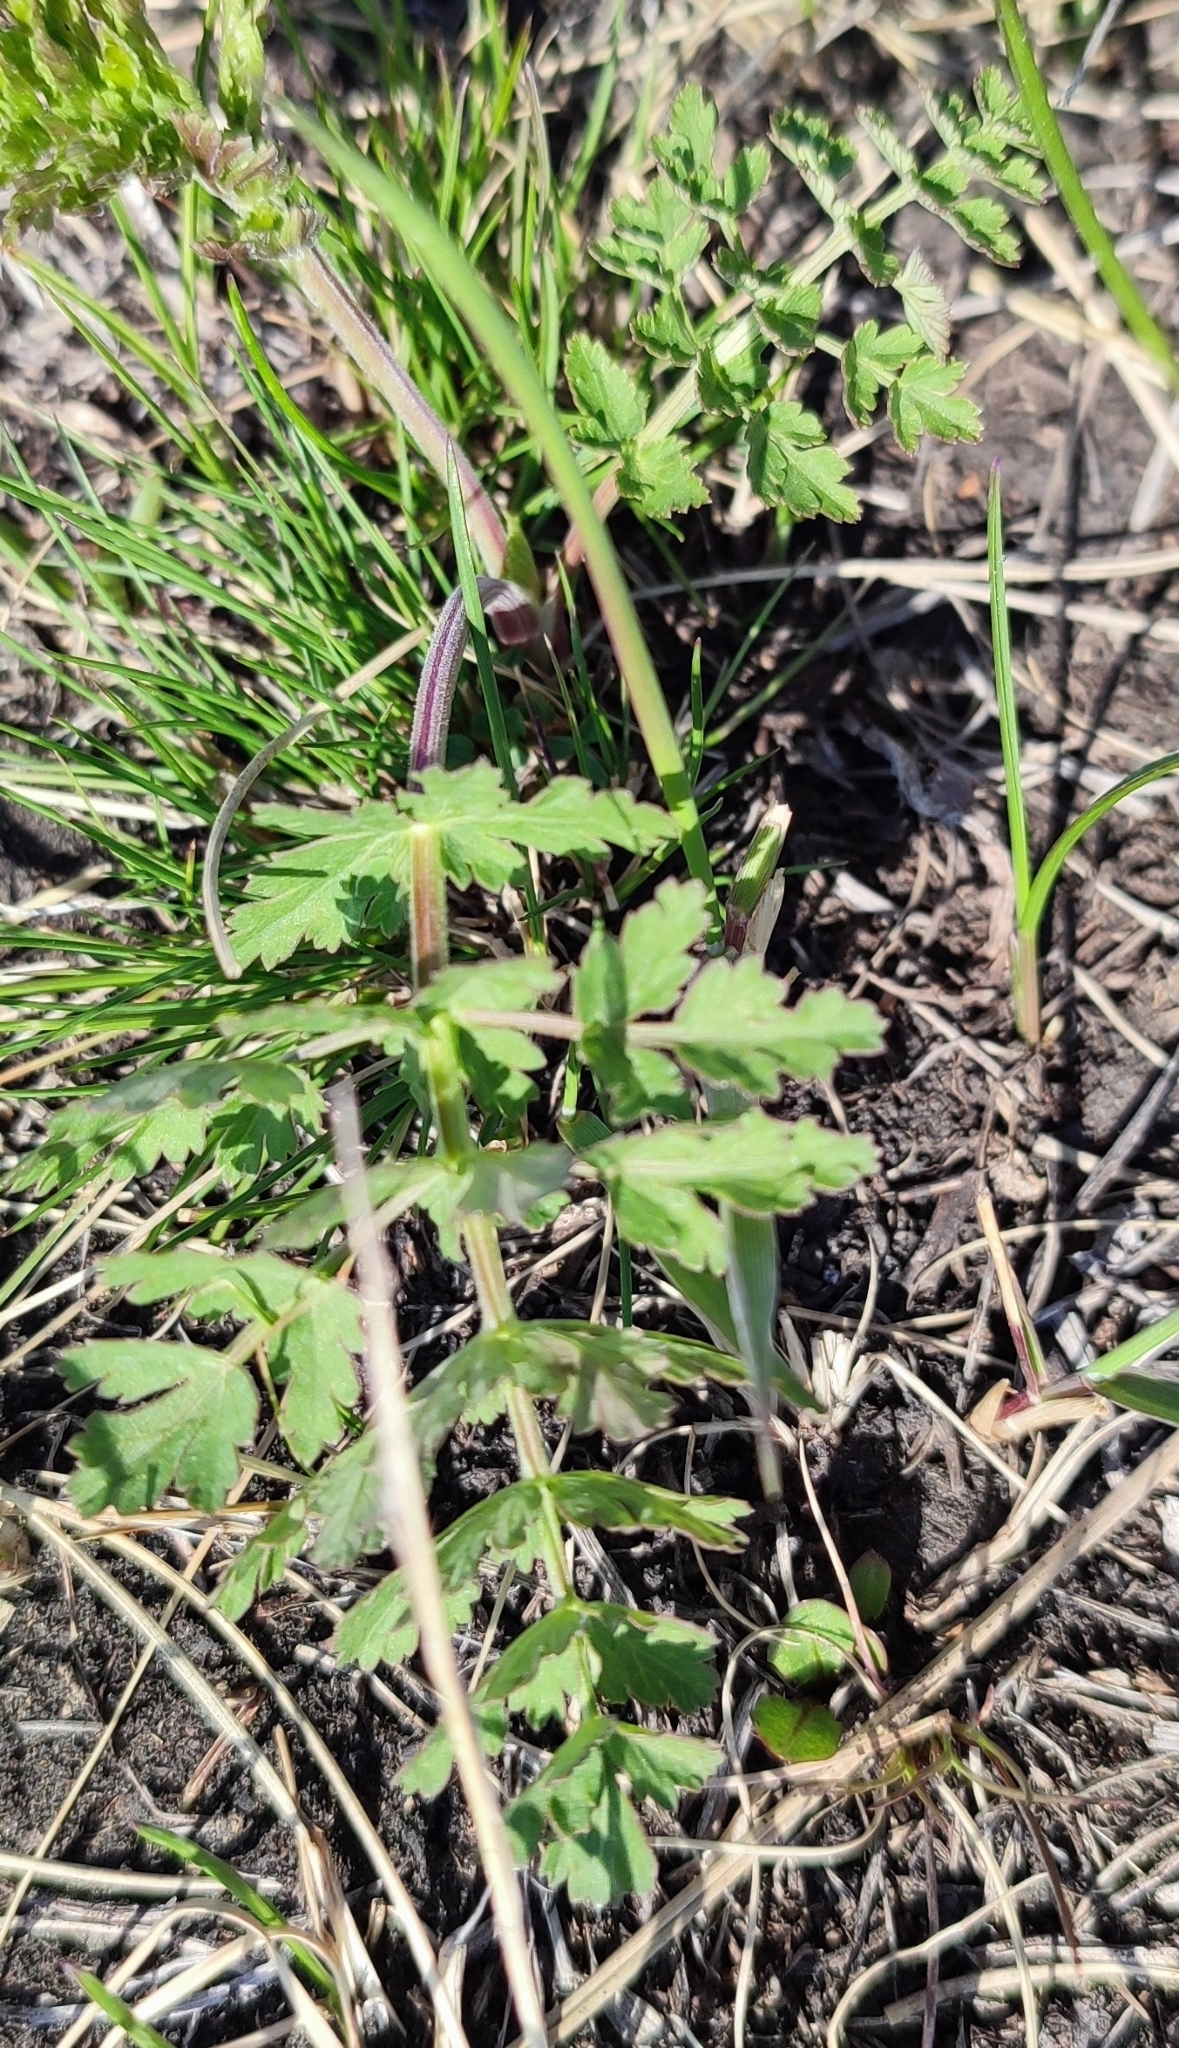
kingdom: Plantae
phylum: Tracheophyta
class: Magnoliopsida
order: Apiales
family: Apiaceae
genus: Seseli
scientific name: Seseli libanotis
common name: Mooncarrot
